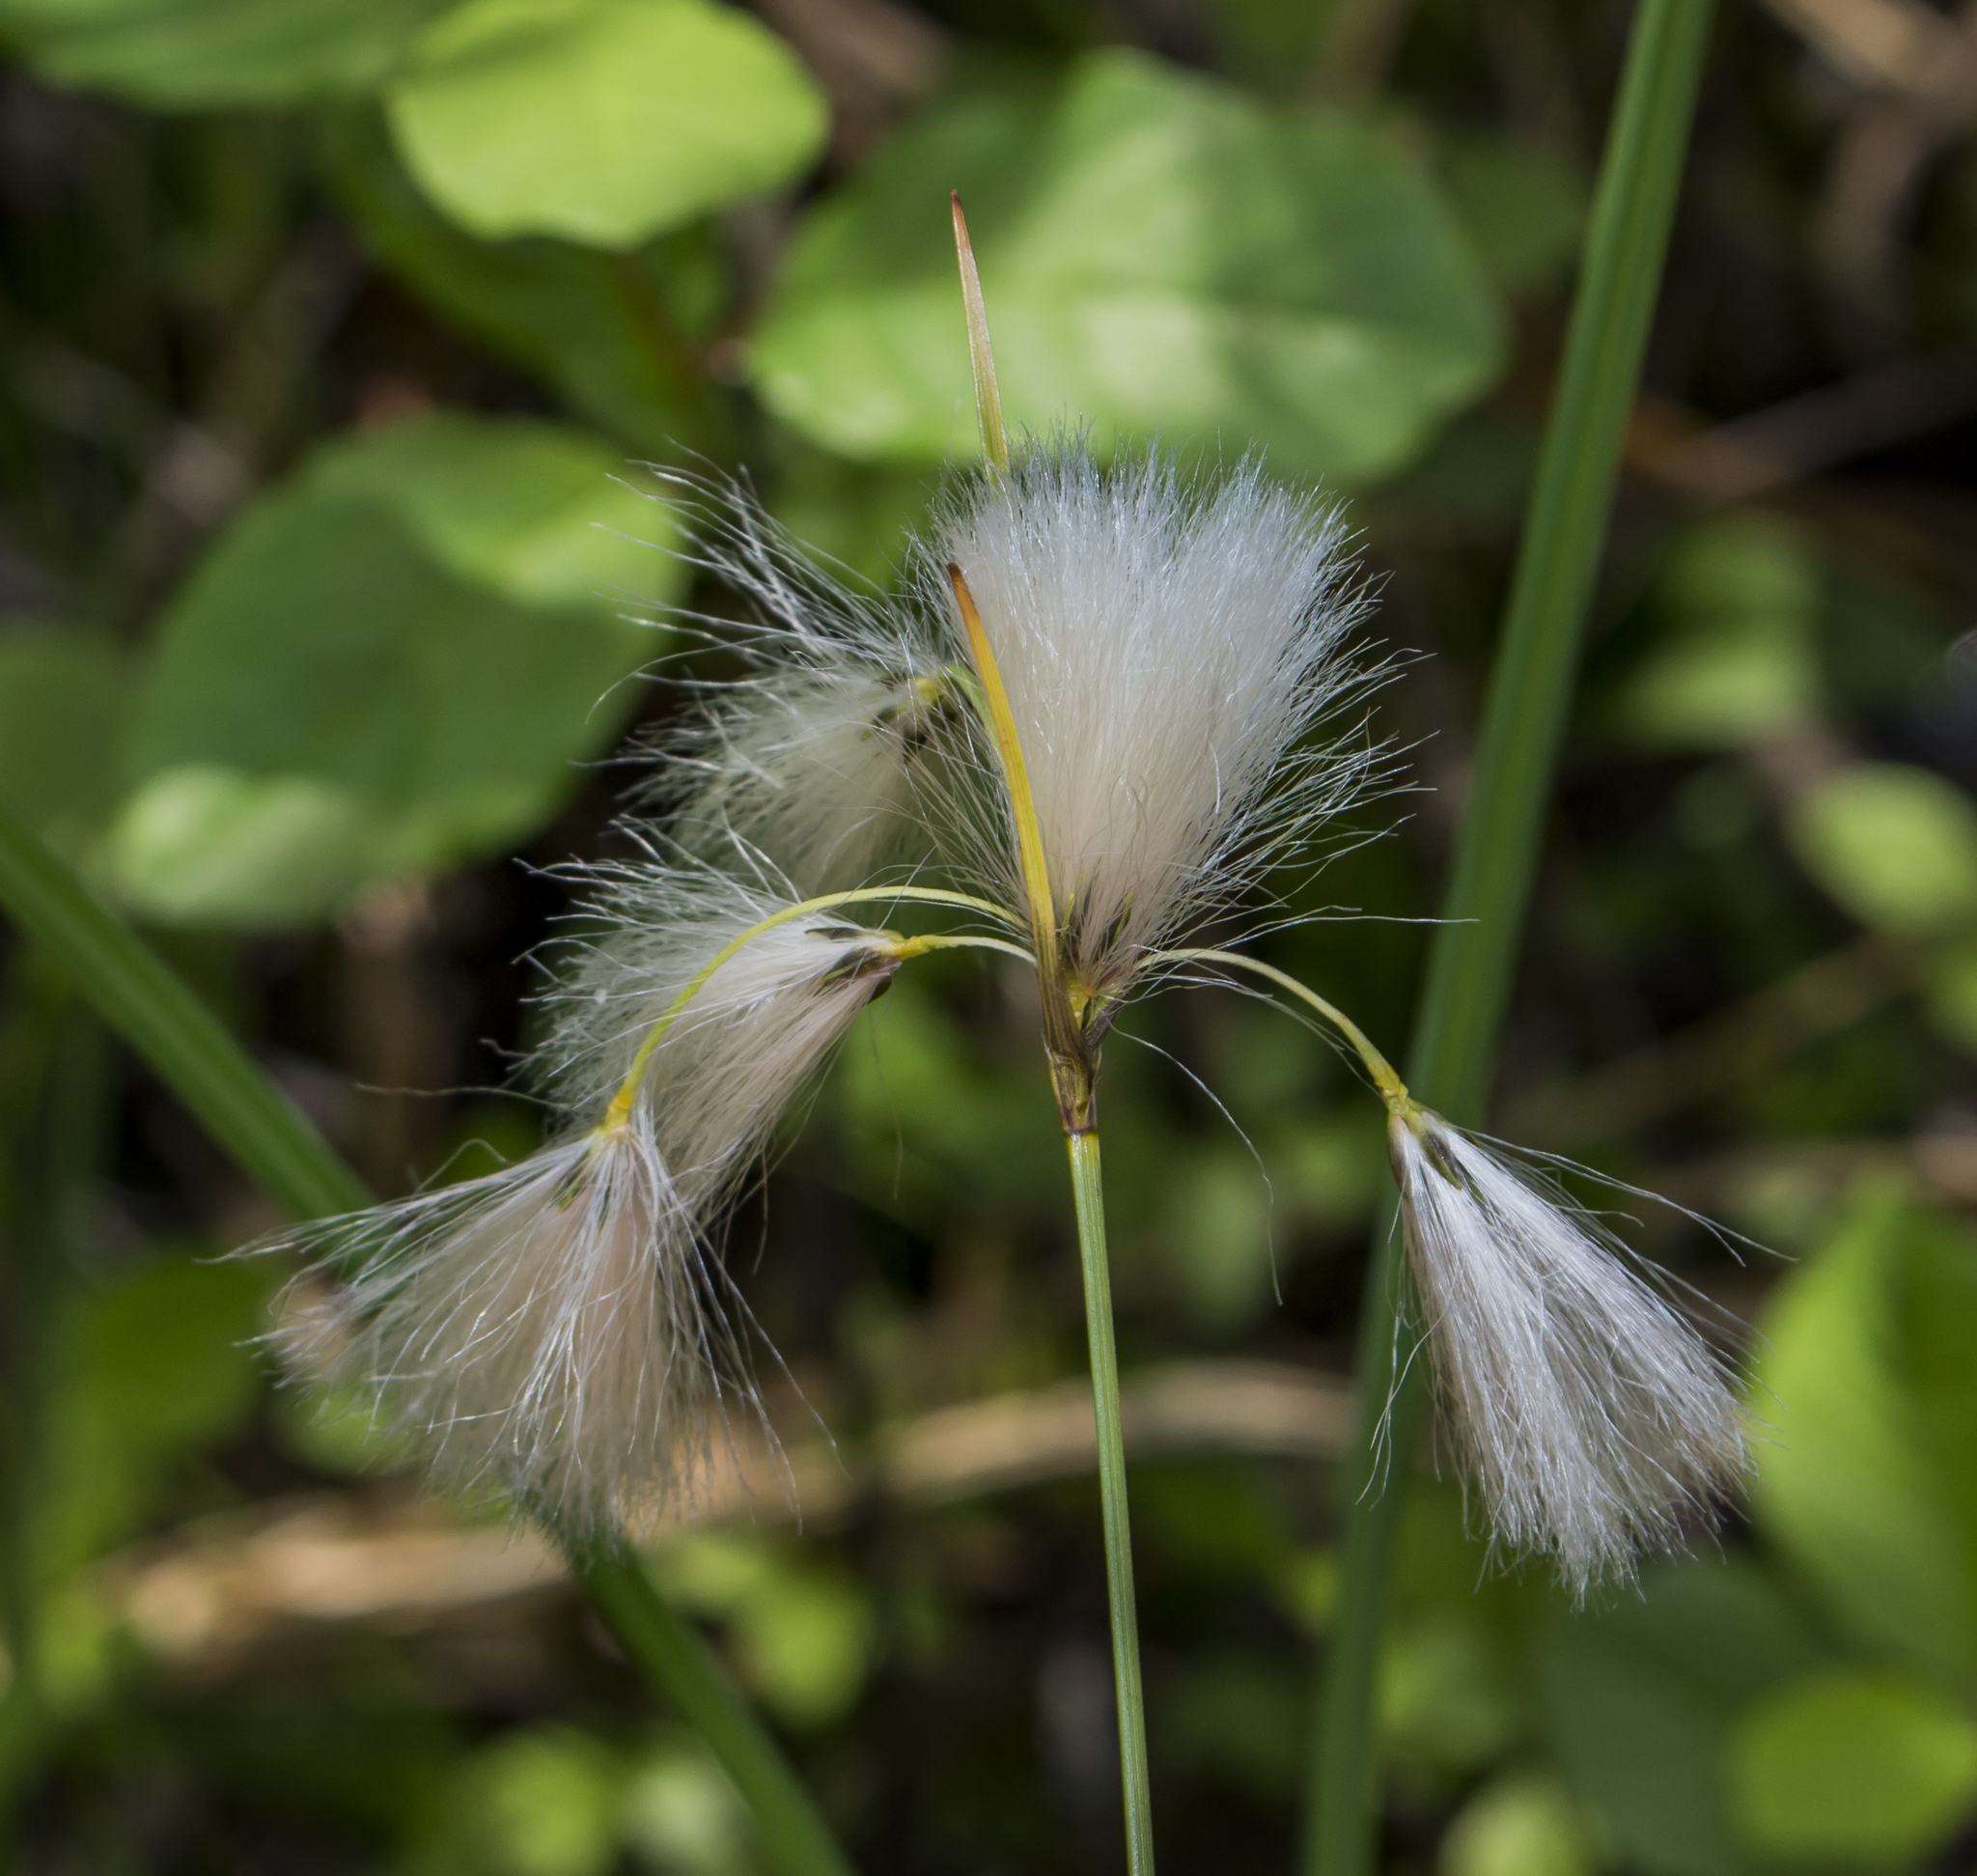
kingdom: Plantae
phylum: Tracheophyta
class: Liliopsida
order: Poales
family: Cyperaceae
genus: Eriophorum
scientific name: Eriophorum angustifolium
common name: Common cottongrass
